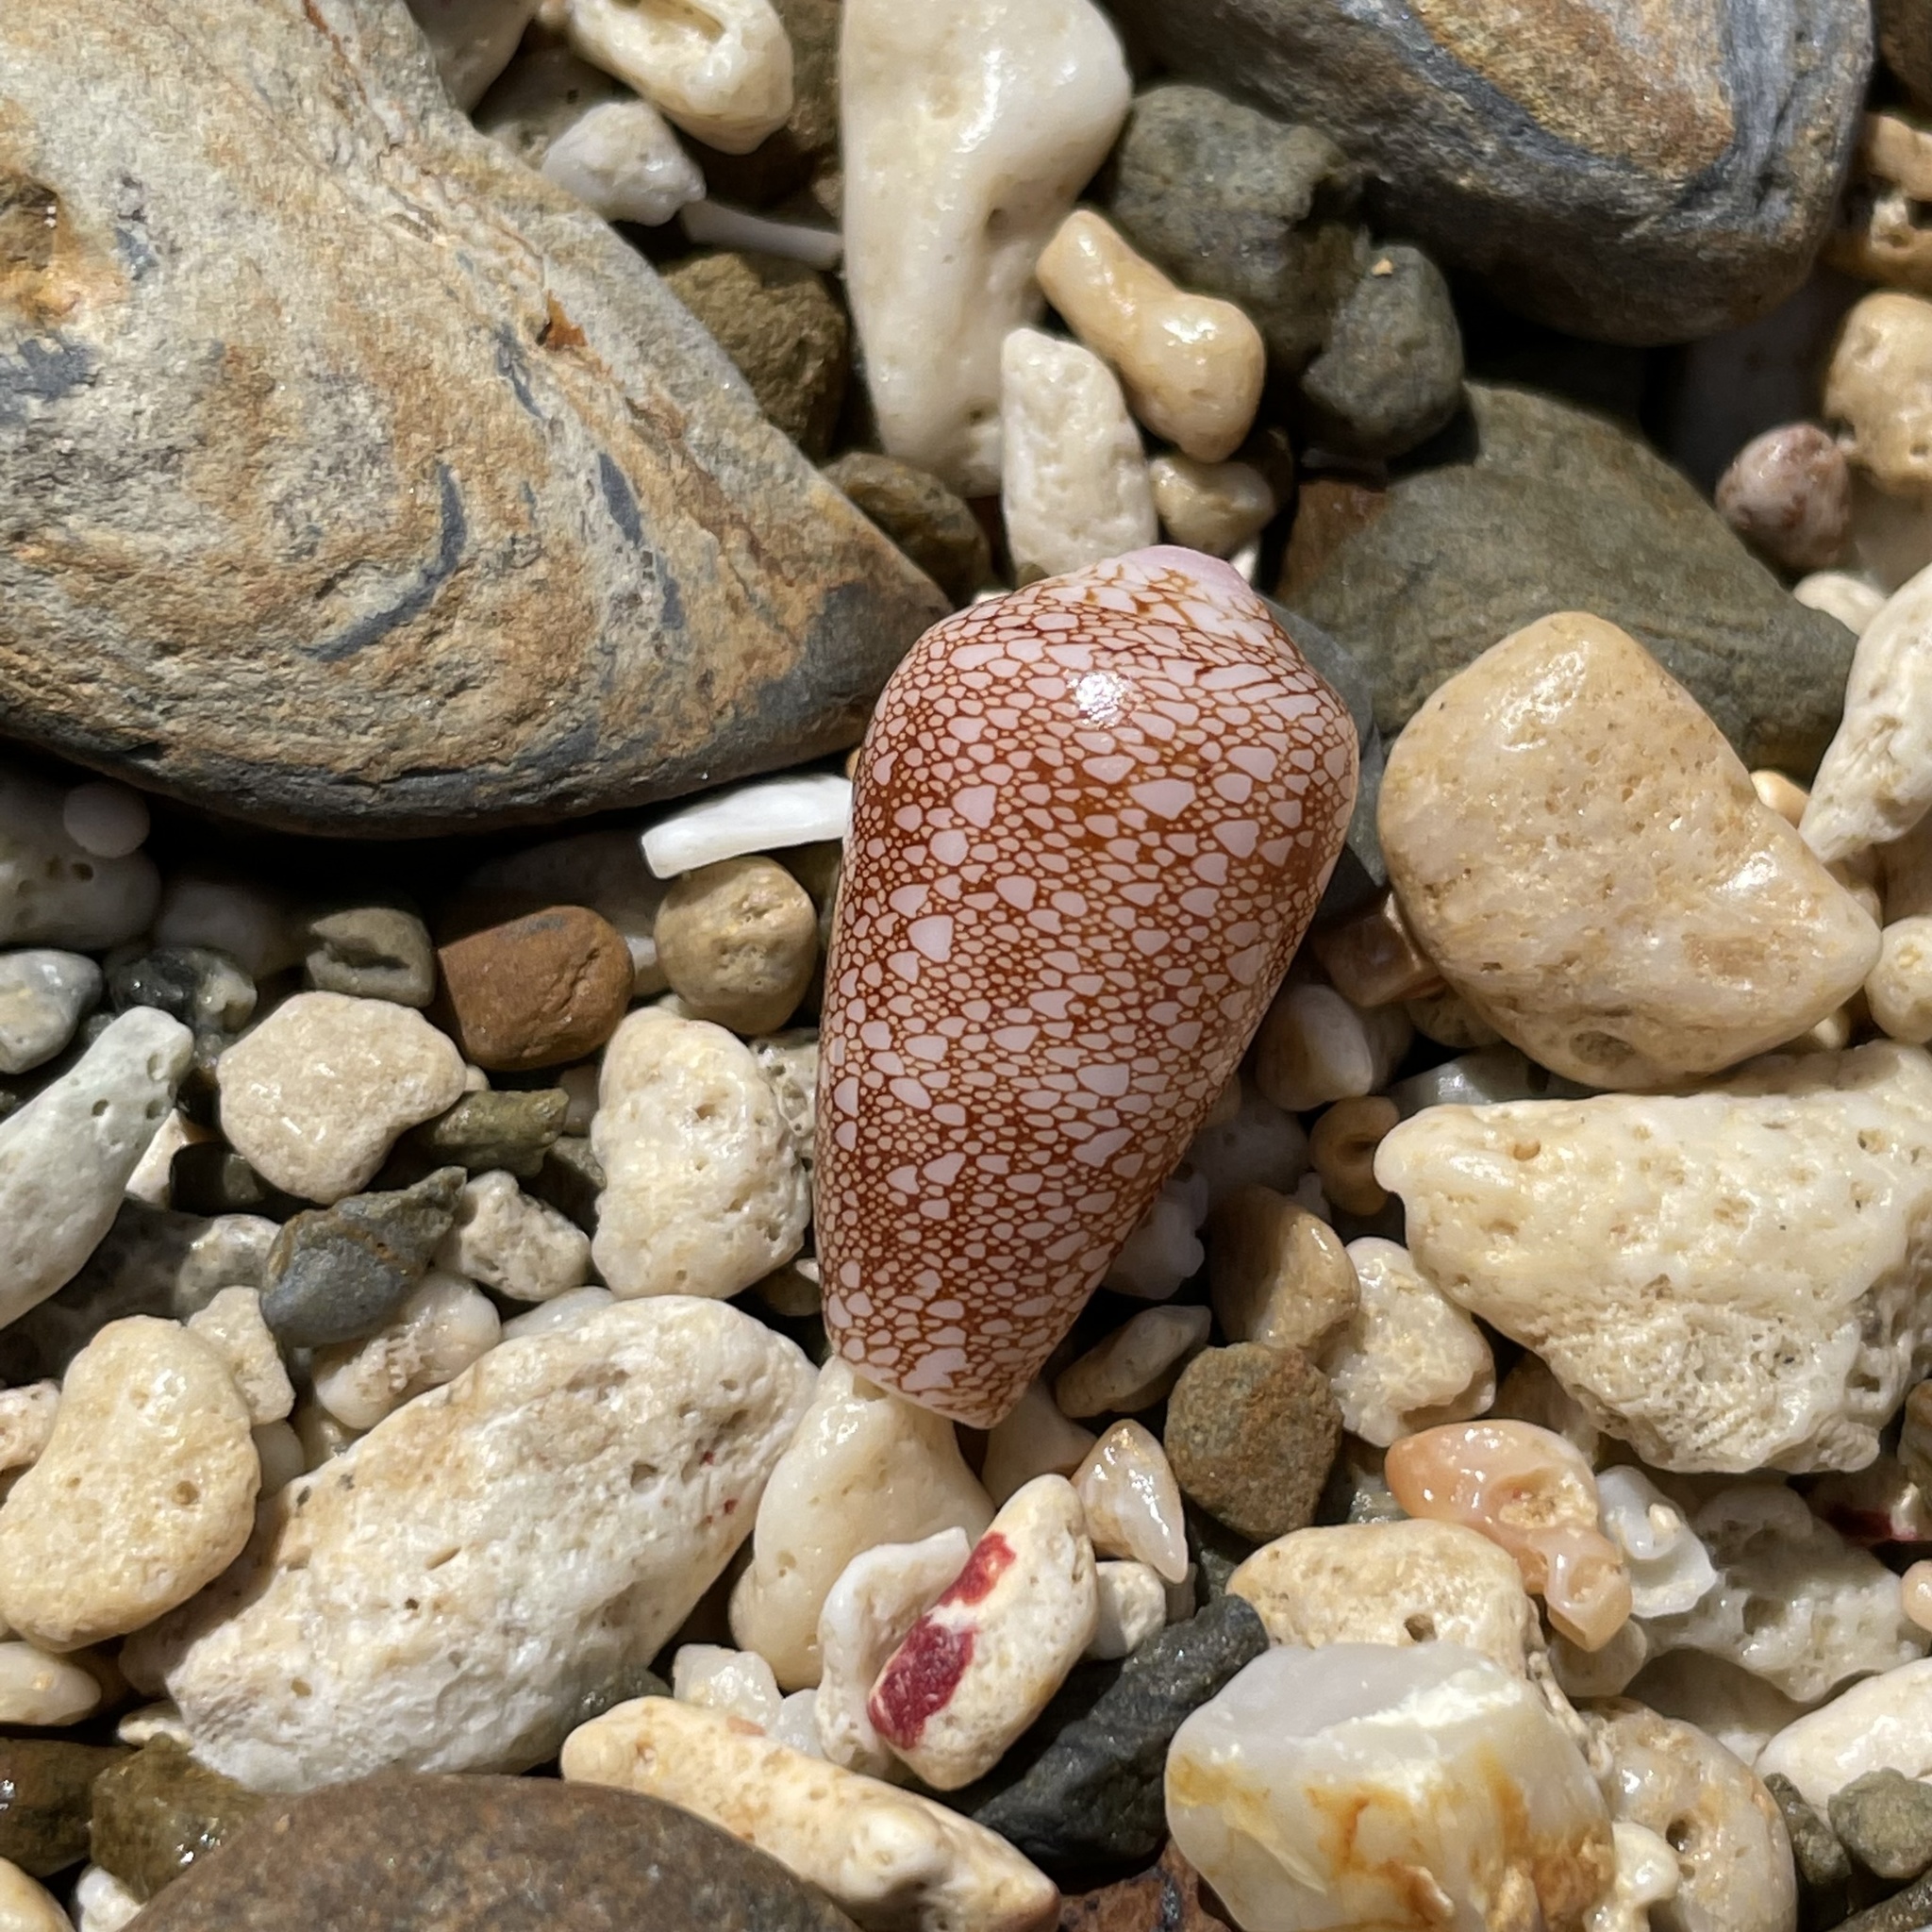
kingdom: Animalia
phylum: Mollusca
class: Gastropoda
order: Neogastropoda
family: Conidae
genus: Conus
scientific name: Conus omaria
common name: Omaria cone
